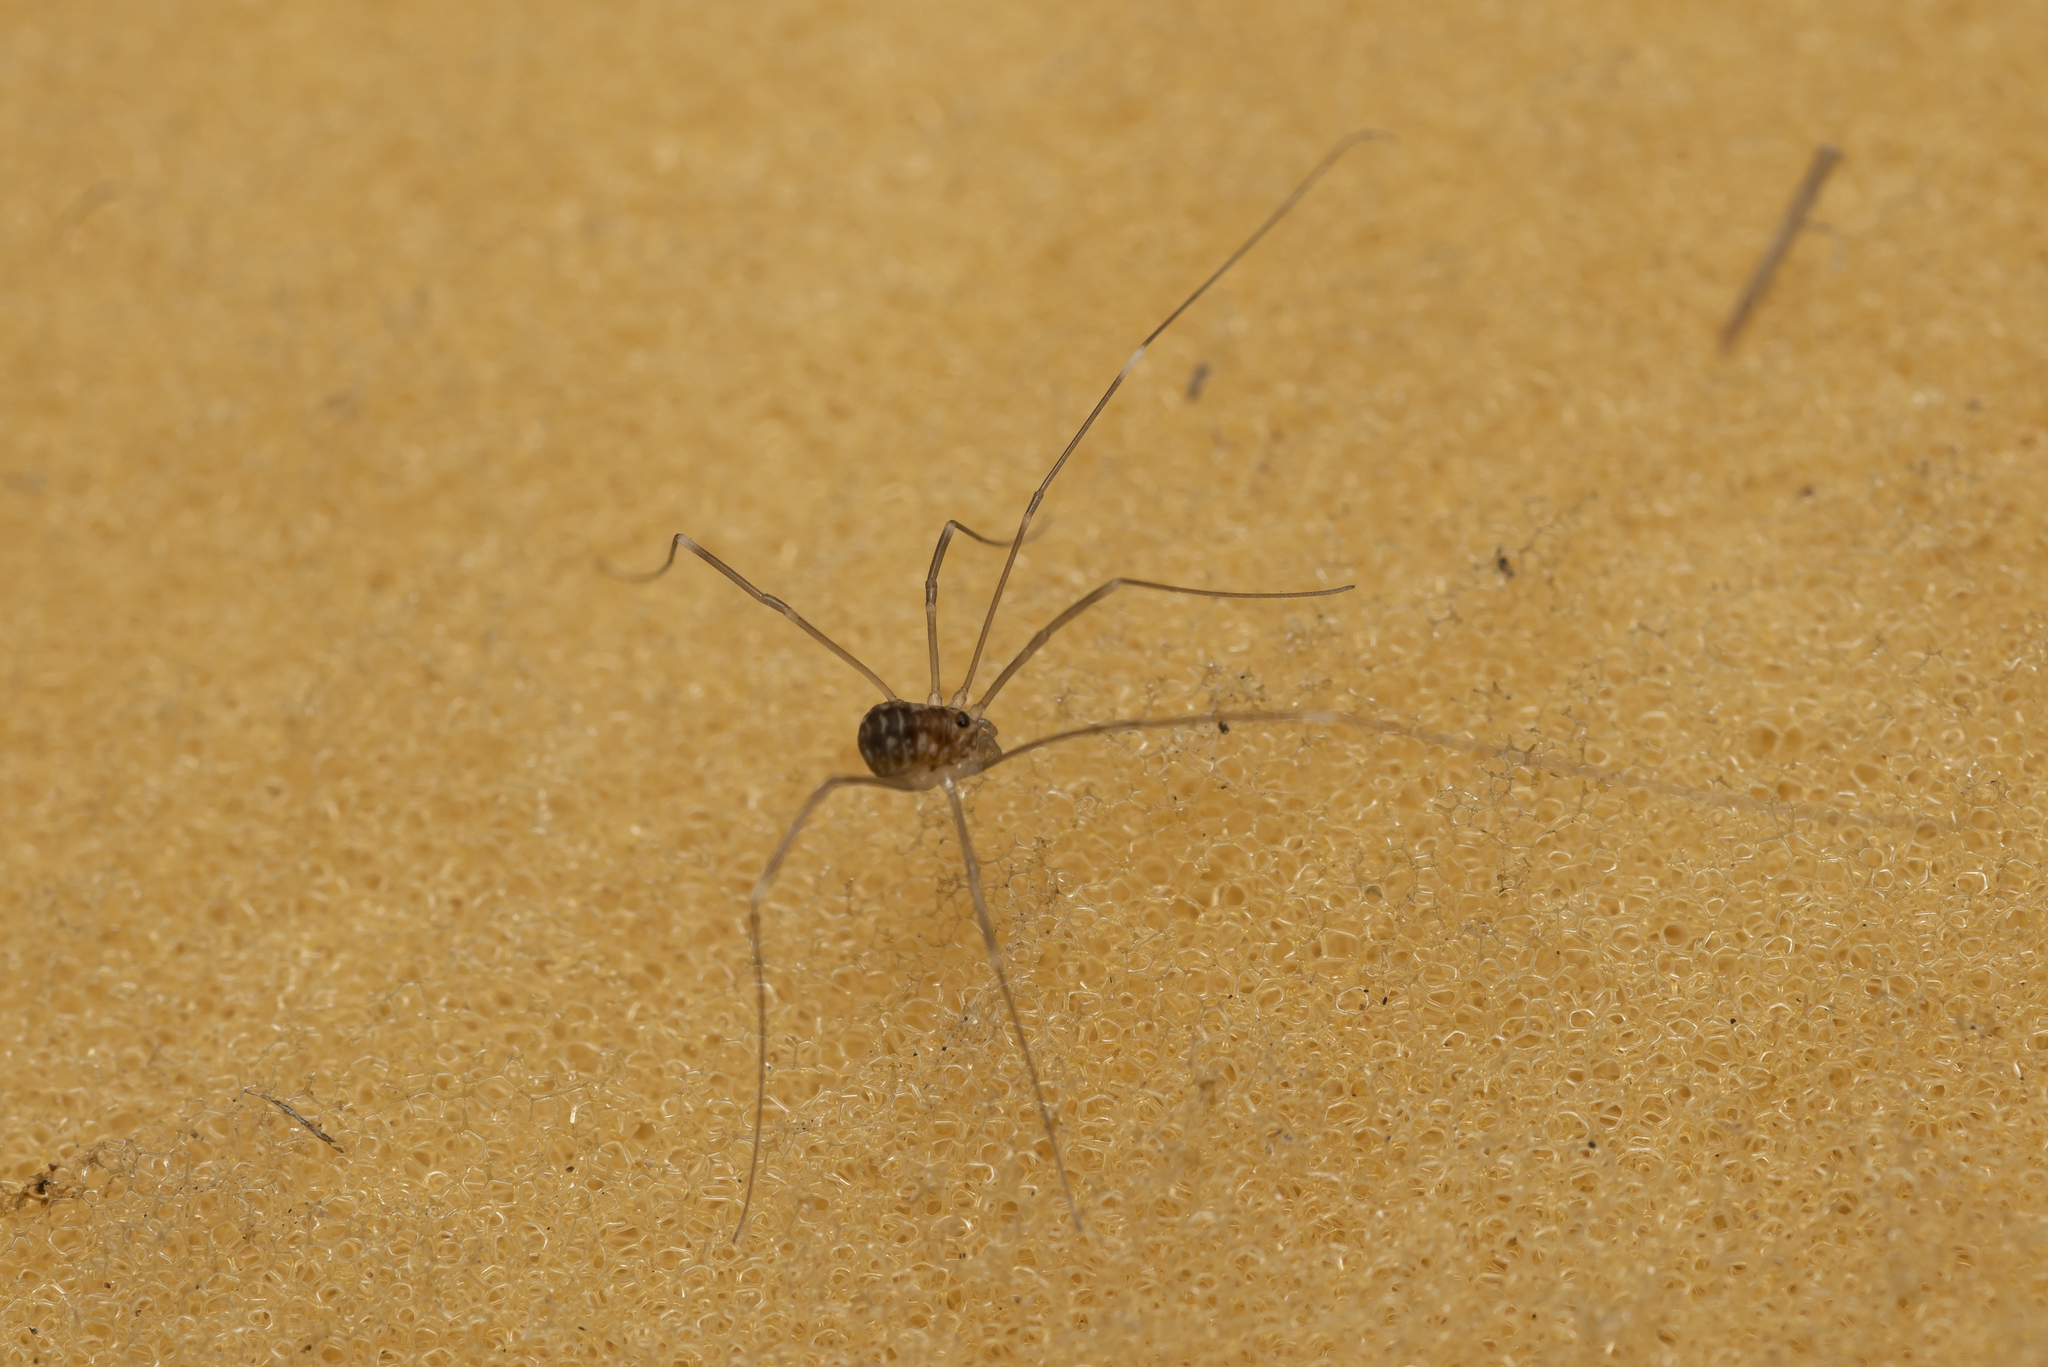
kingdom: Animalia
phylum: Arthropoda
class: Arachnida
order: Opiliones
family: Sclerosomatidae
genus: Leiobunum
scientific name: Leiobunum ghigii
